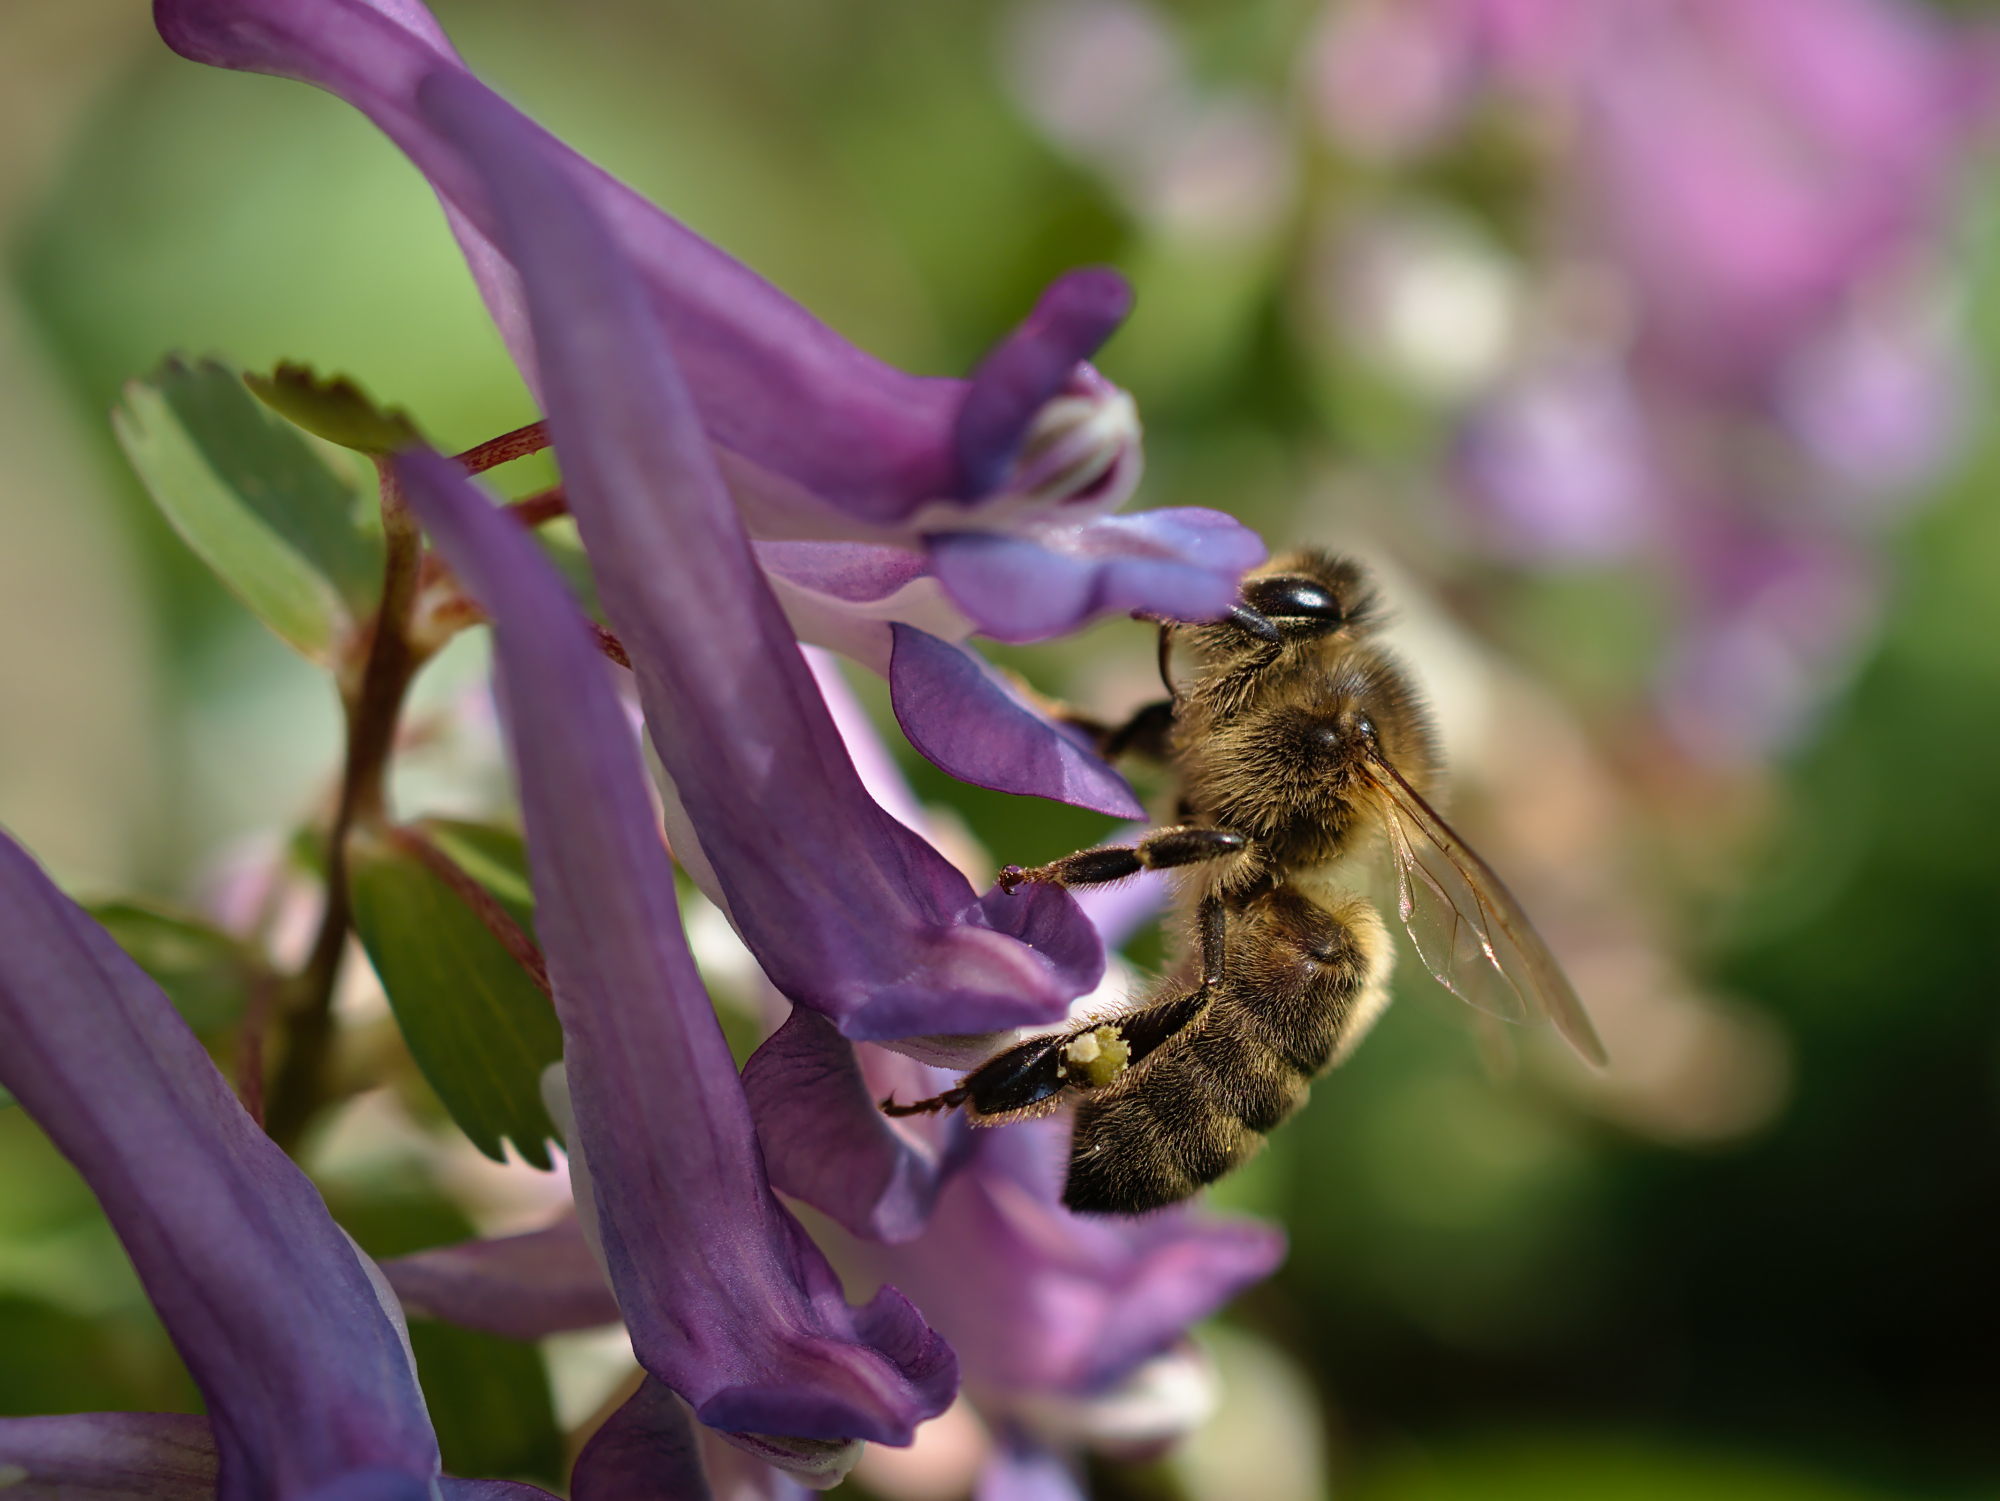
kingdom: Animalia
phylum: Arthropoda
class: Insecta
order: Hymenoptera
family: Apidae
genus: Apis
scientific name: Apis mellifera
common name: Honey bee
